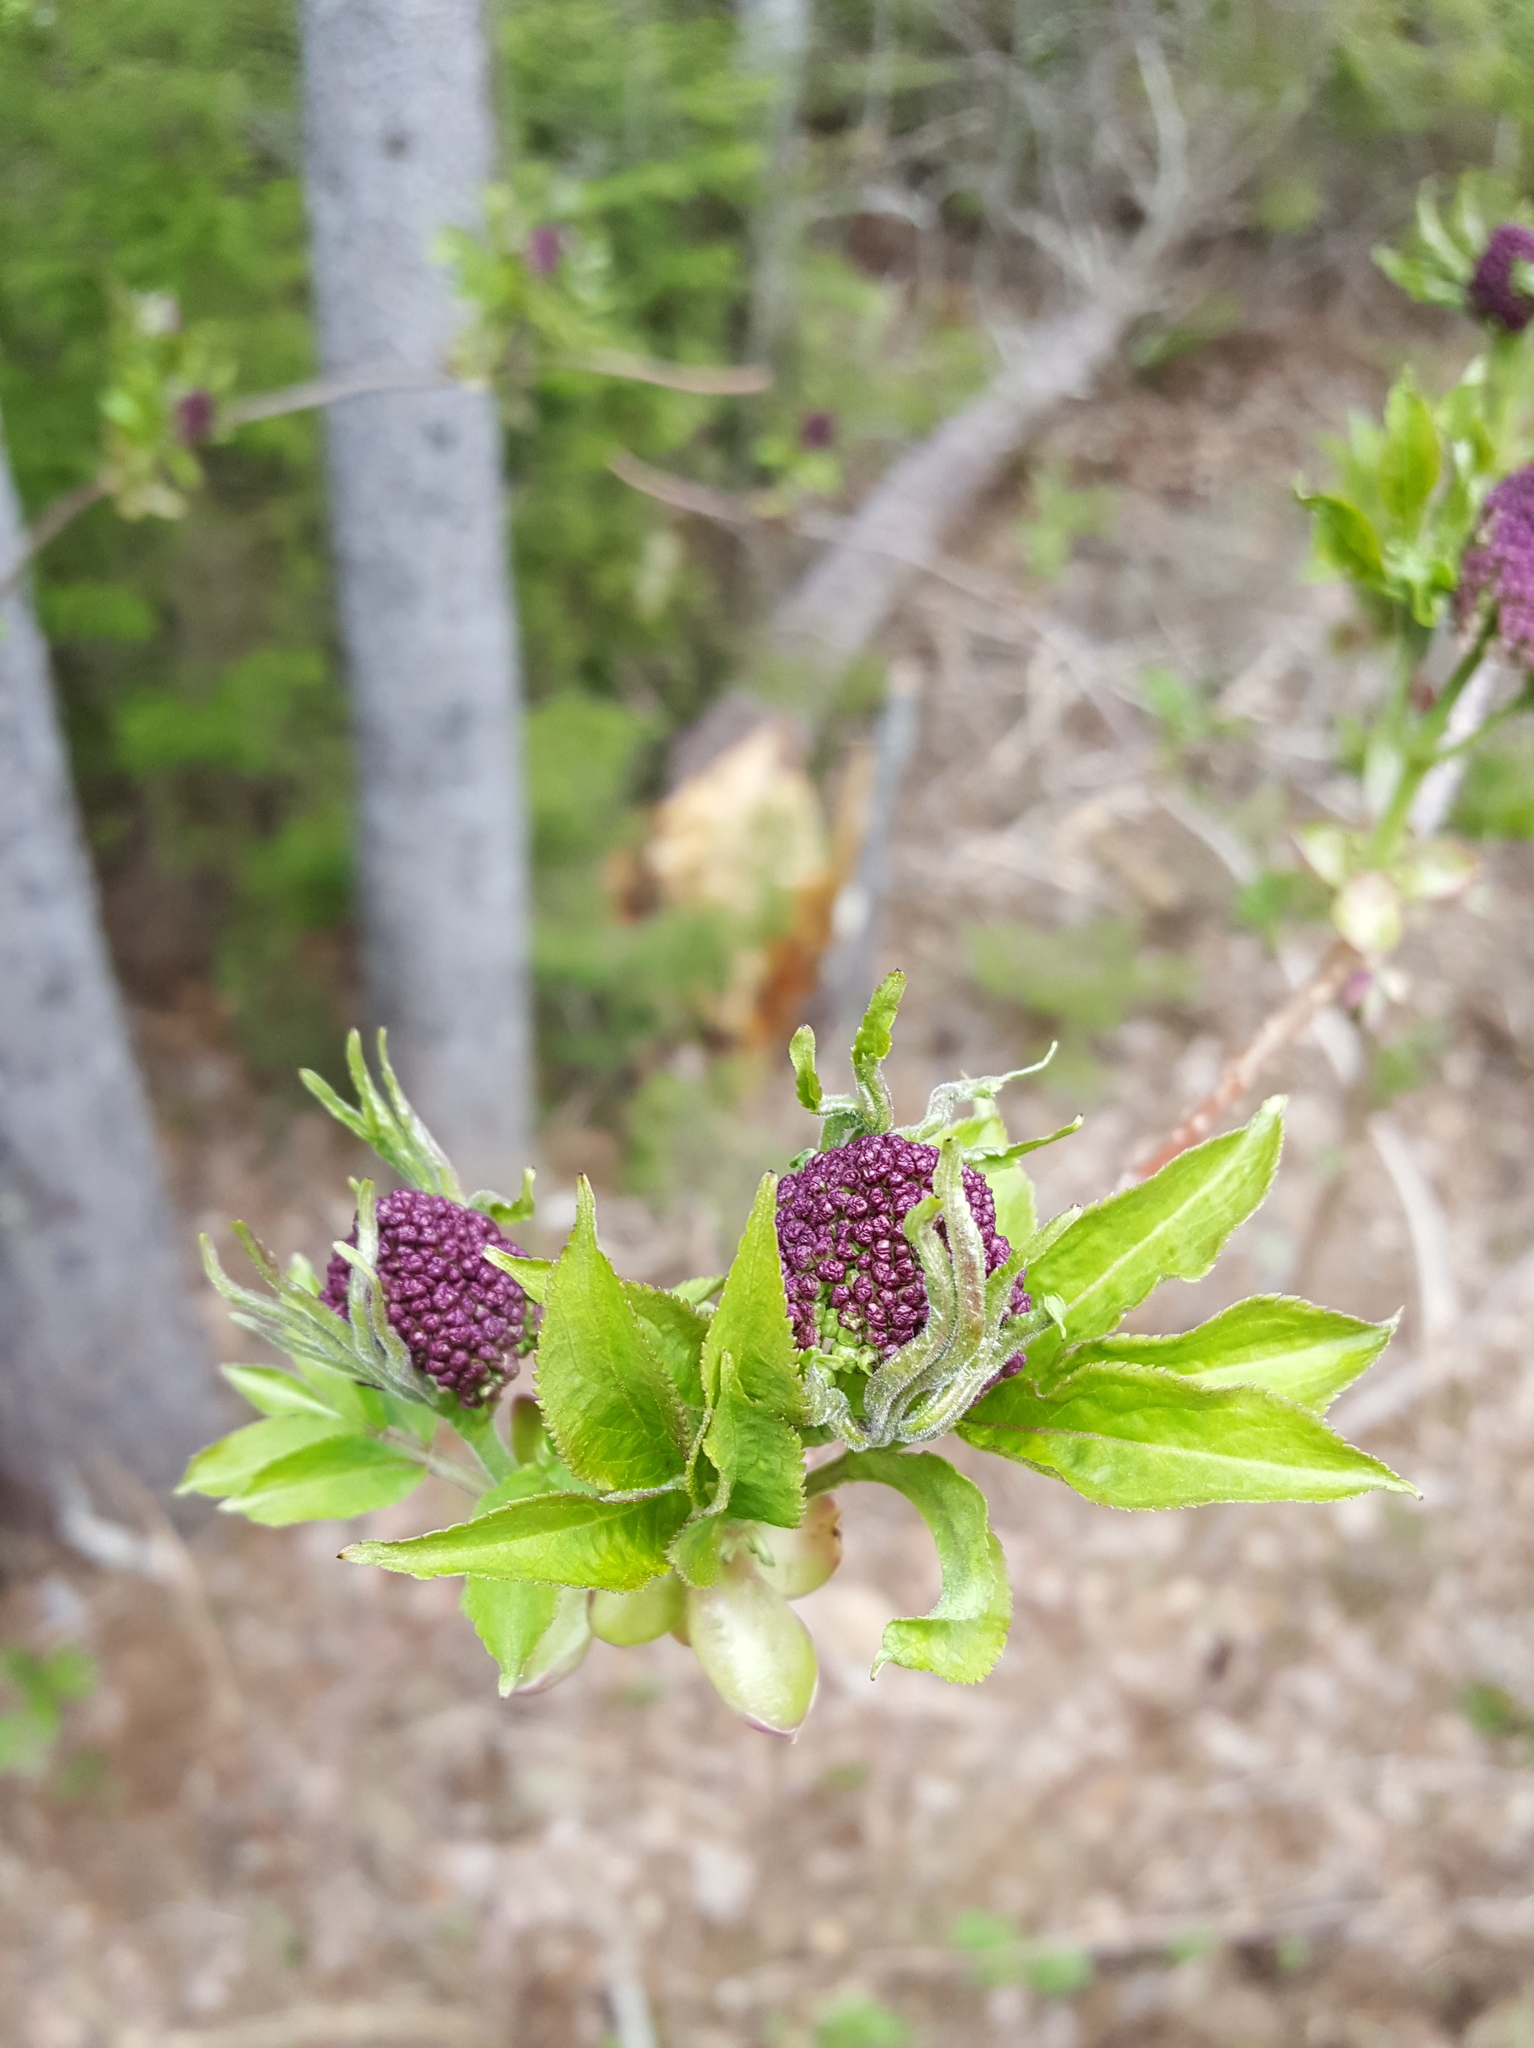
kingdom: Plantae
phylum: Tracheophyta
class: Magnoliopsida
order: Dipsacales
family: Viburnaceae
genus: Sambucus
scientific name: Sambucus racemosa
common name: Red-berried elder
